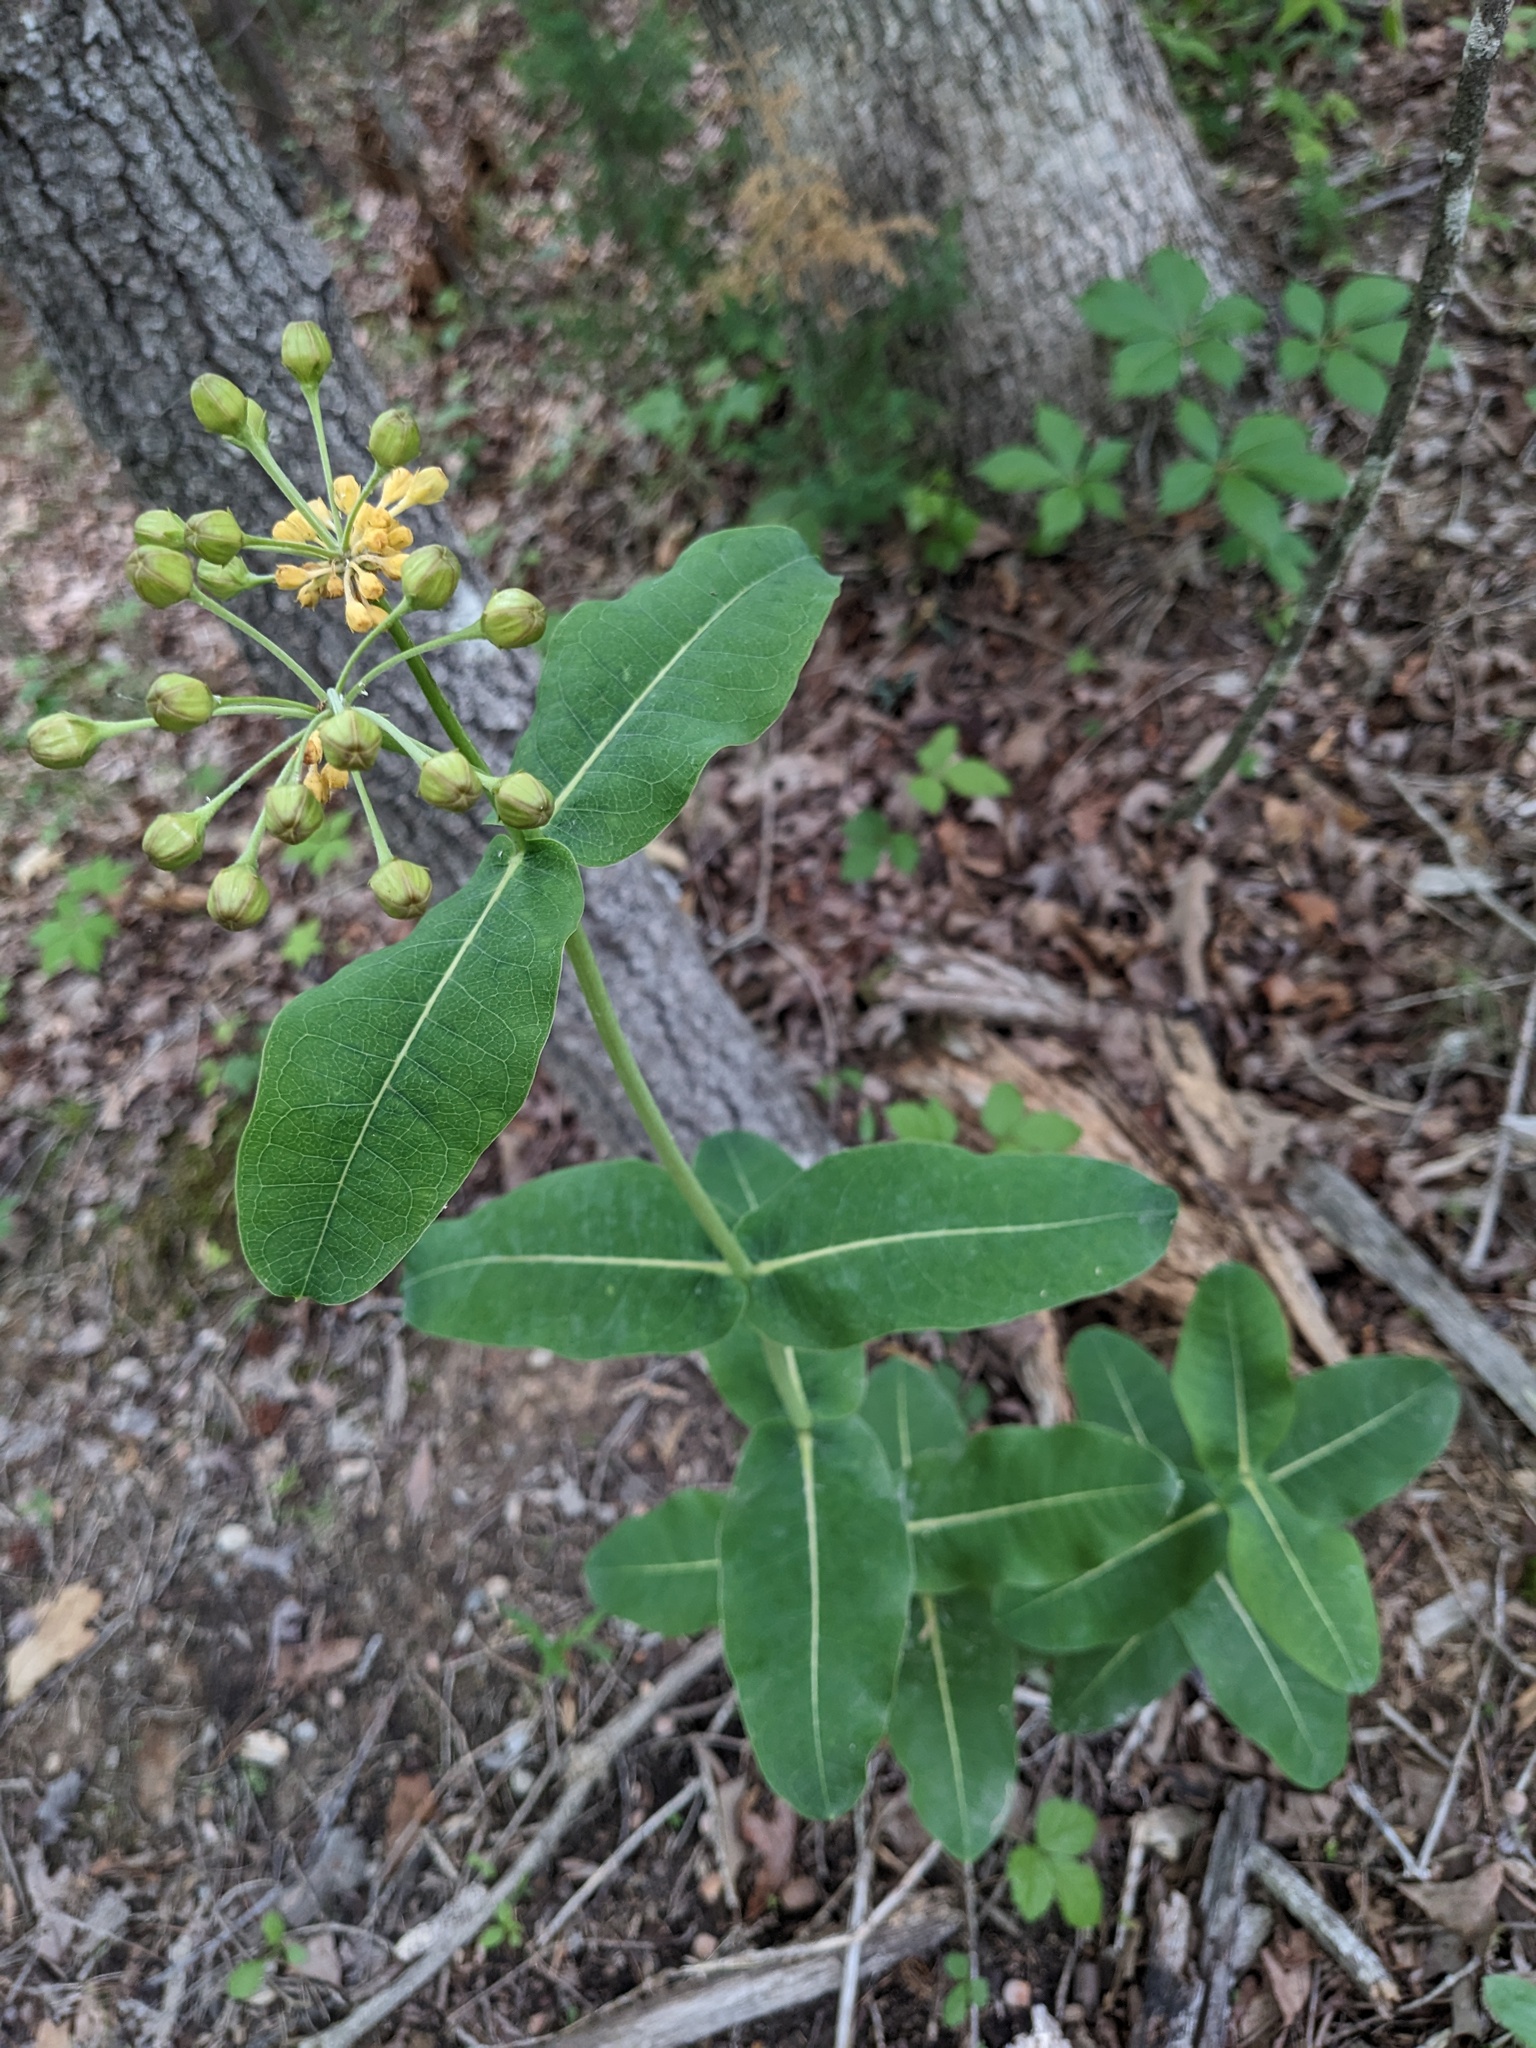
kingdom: Plantae
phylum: Tracheophyta
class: Magnoliopsida
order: Gentianales
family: Apocynaceae
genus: Asclepias
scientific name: Asclepias amplexicaulis
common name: Blunt-leaf milkweed
